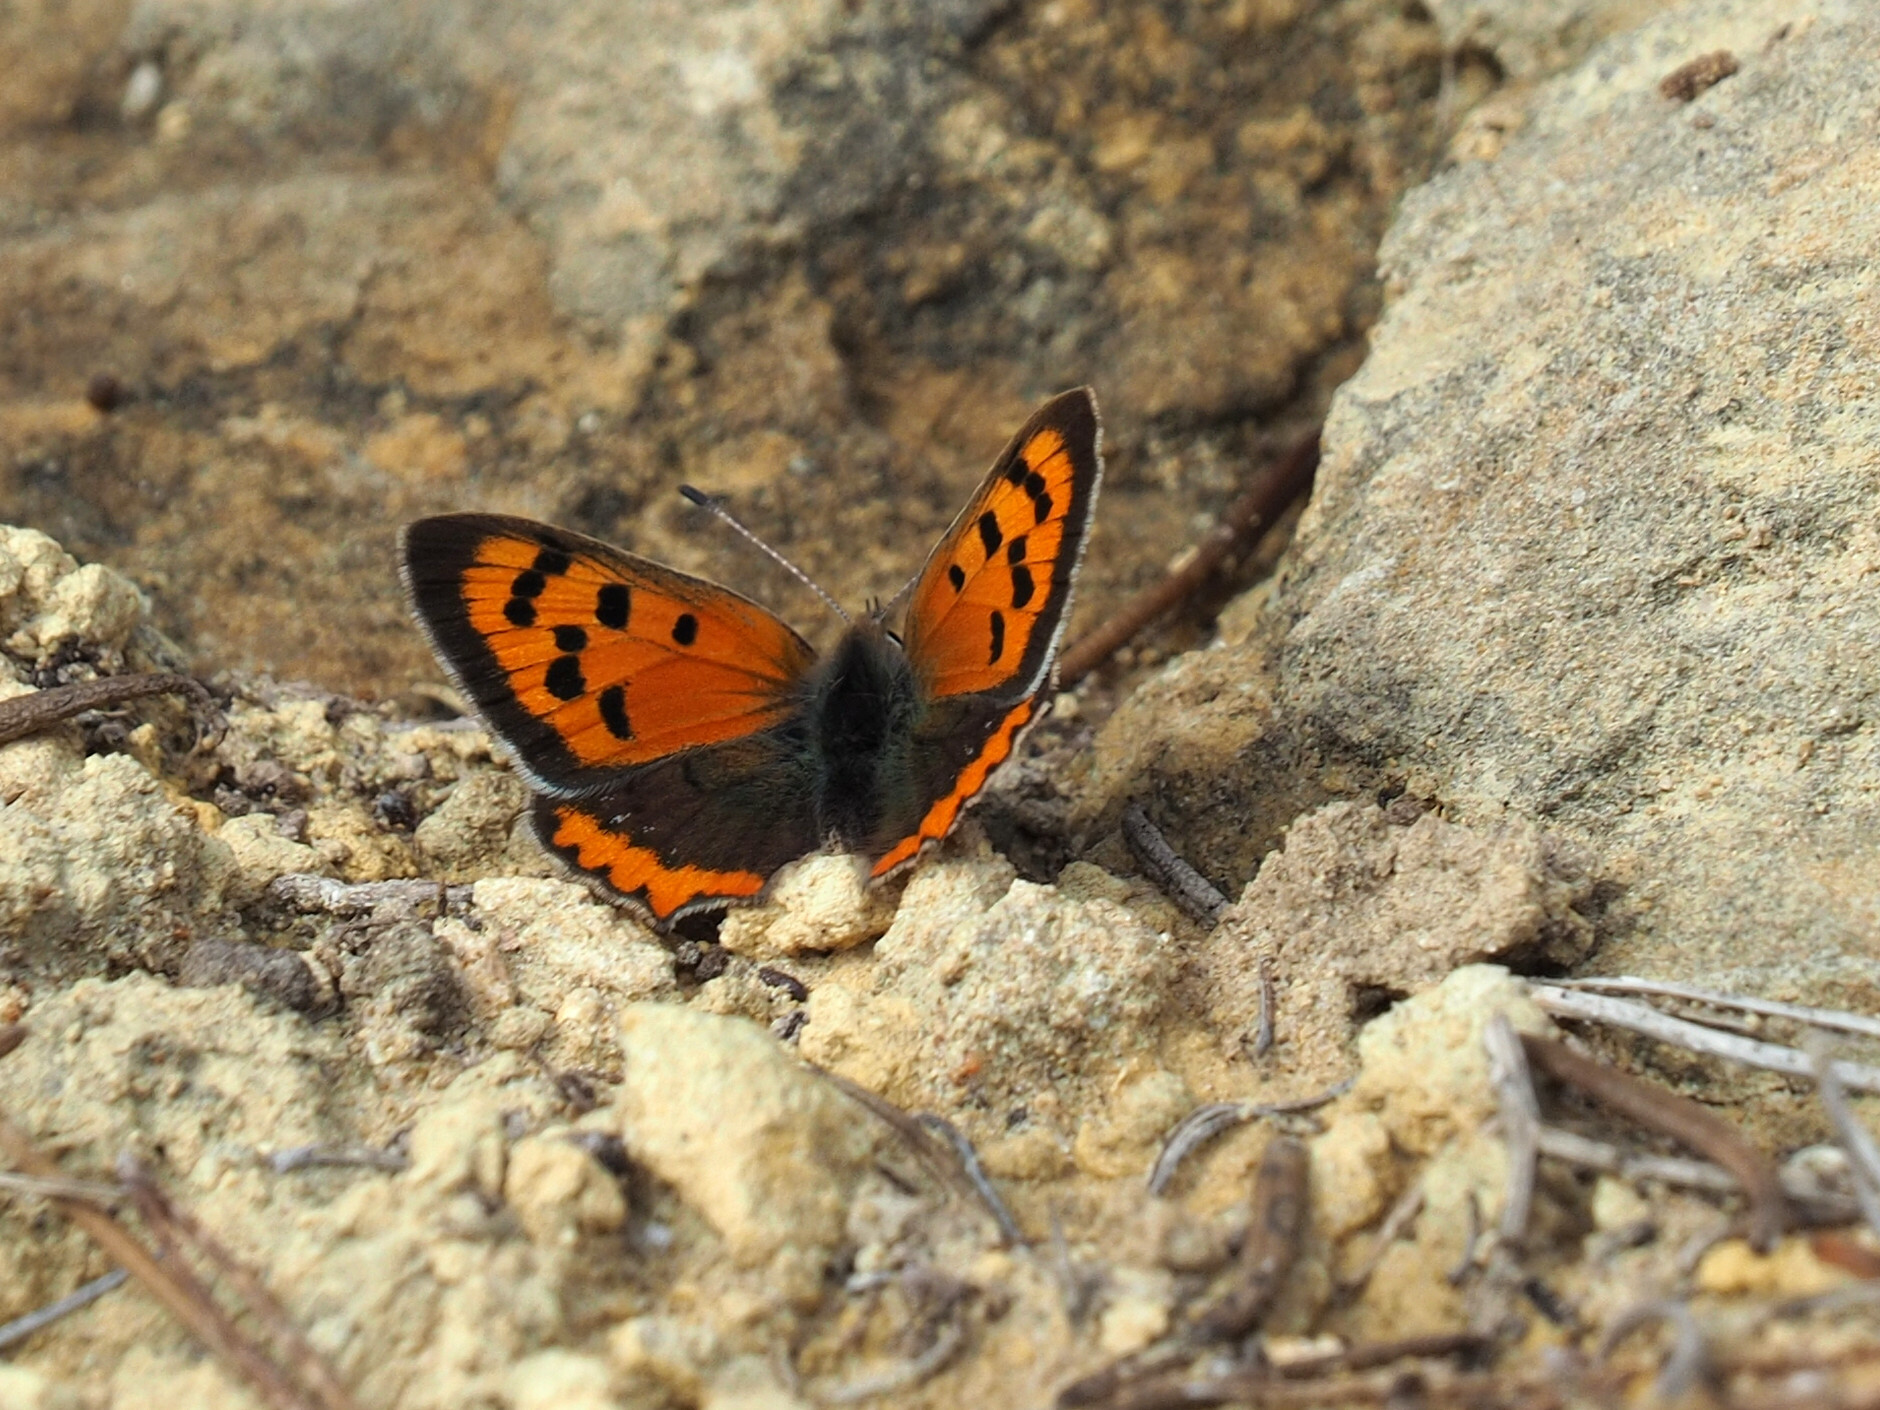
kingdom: Animalia
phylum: Arthropoda
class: Insecta
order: Lepidoptera
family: Lycaenidae
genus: Lycaena
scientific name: Lycaena phlaeas
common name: Small copper
